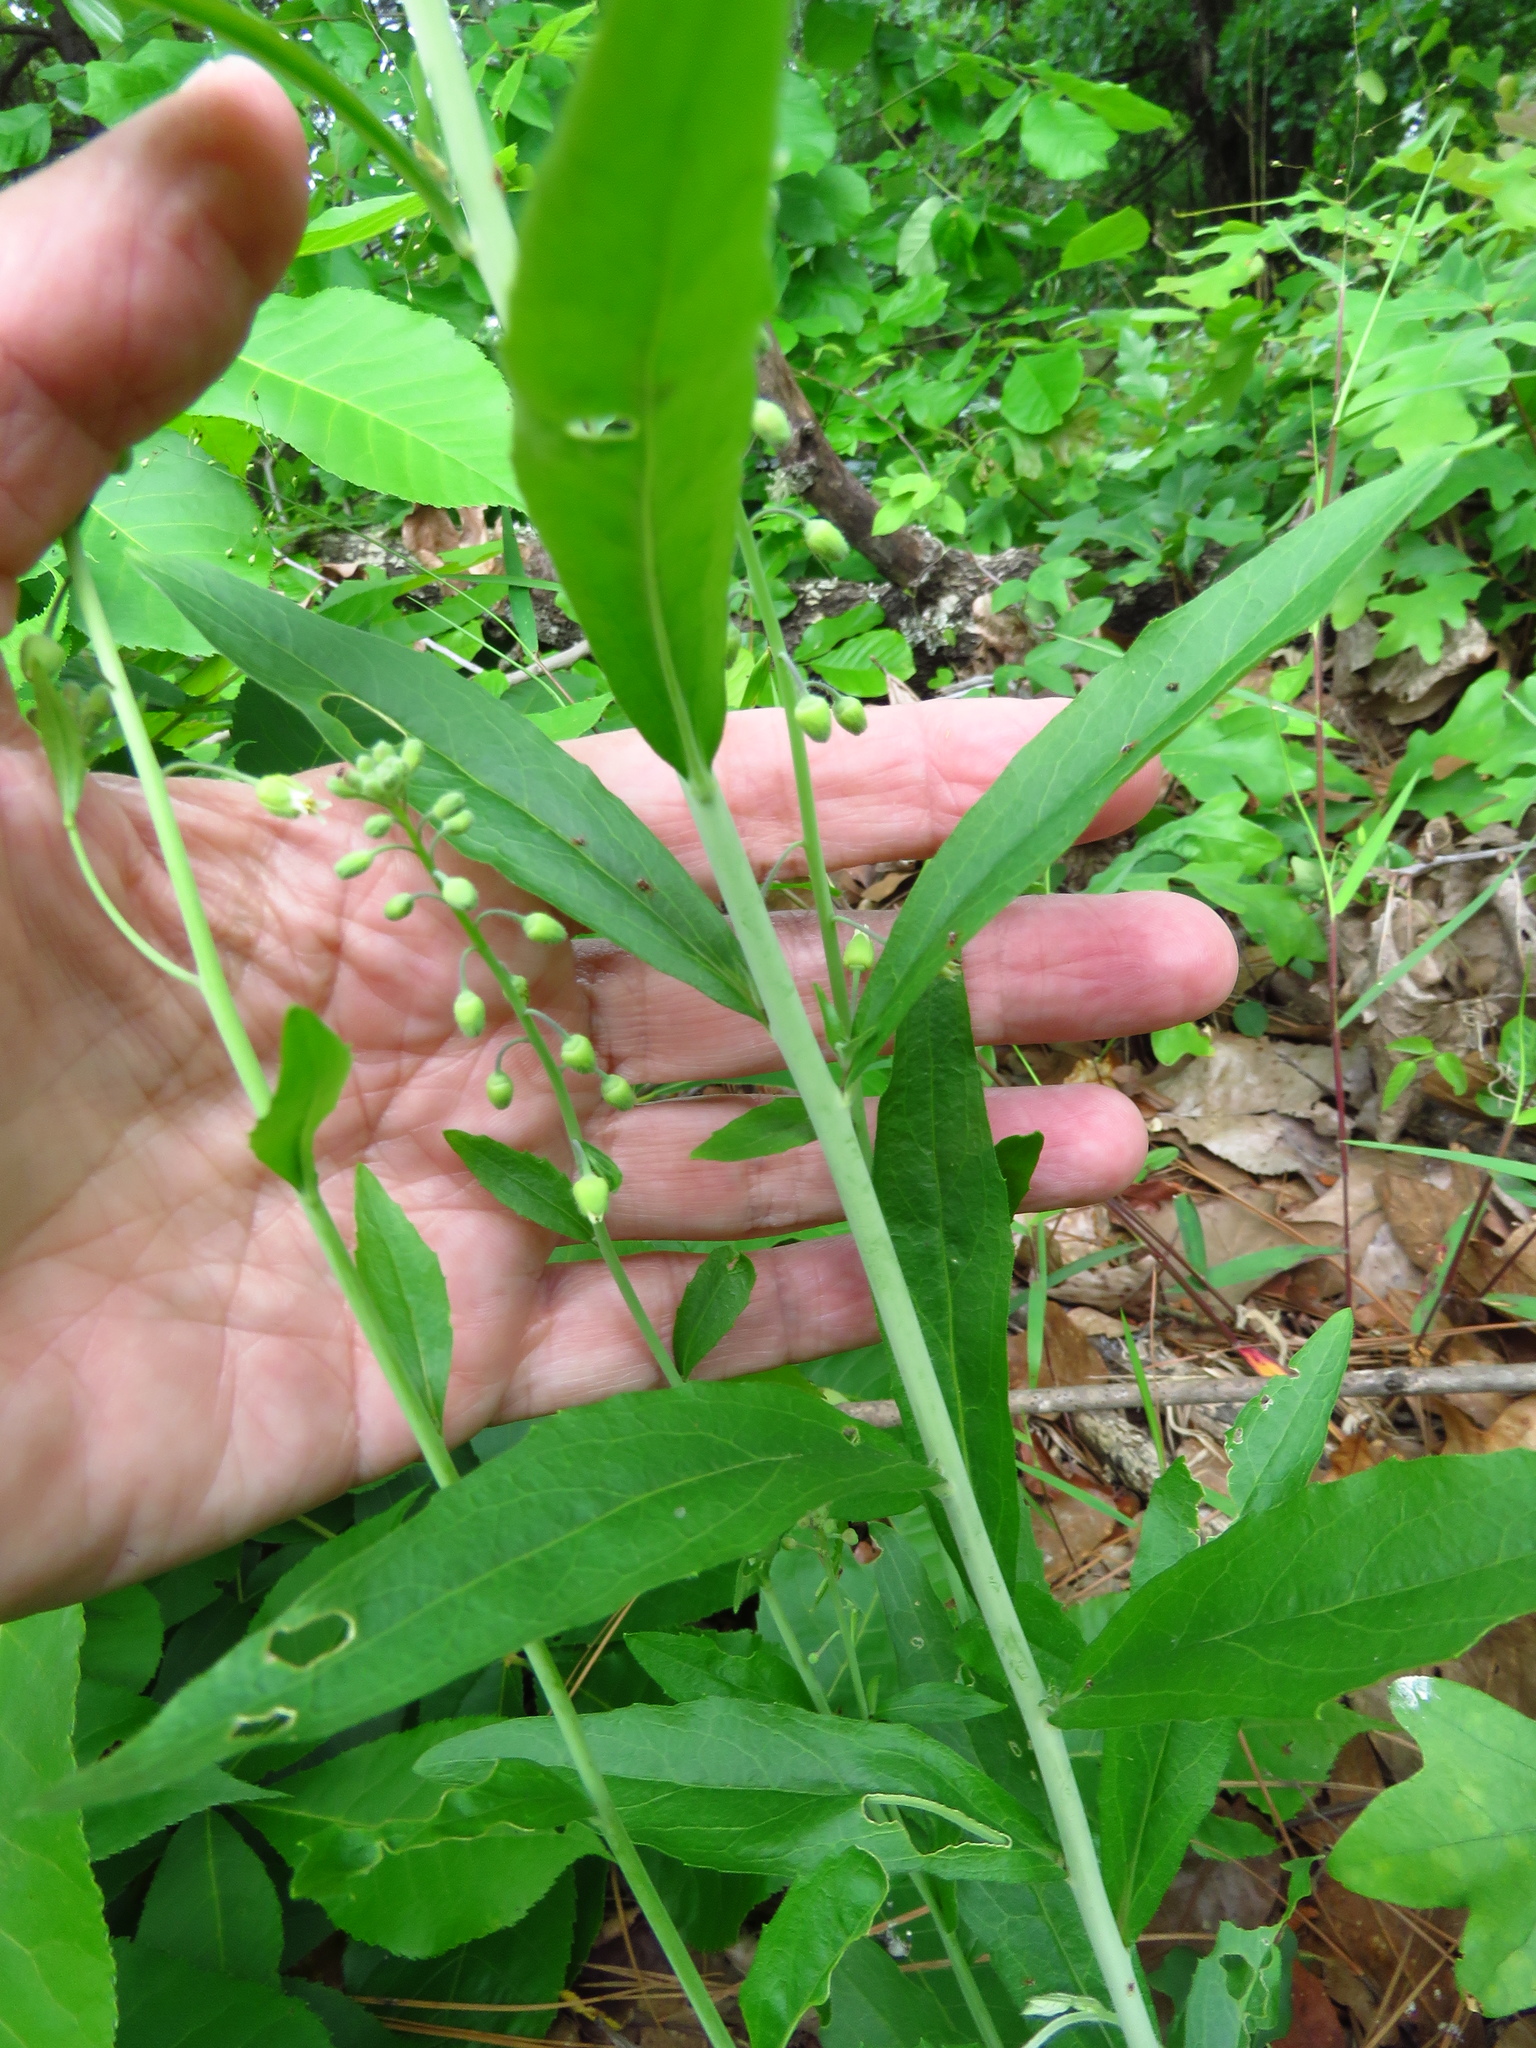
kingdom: Plantae
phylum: Tracheophyta
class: Magnoliopsida
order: Brassicales
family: Brassicaceae
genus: Borodinia
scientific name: Borodinia canadensis
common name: Sicklepod
